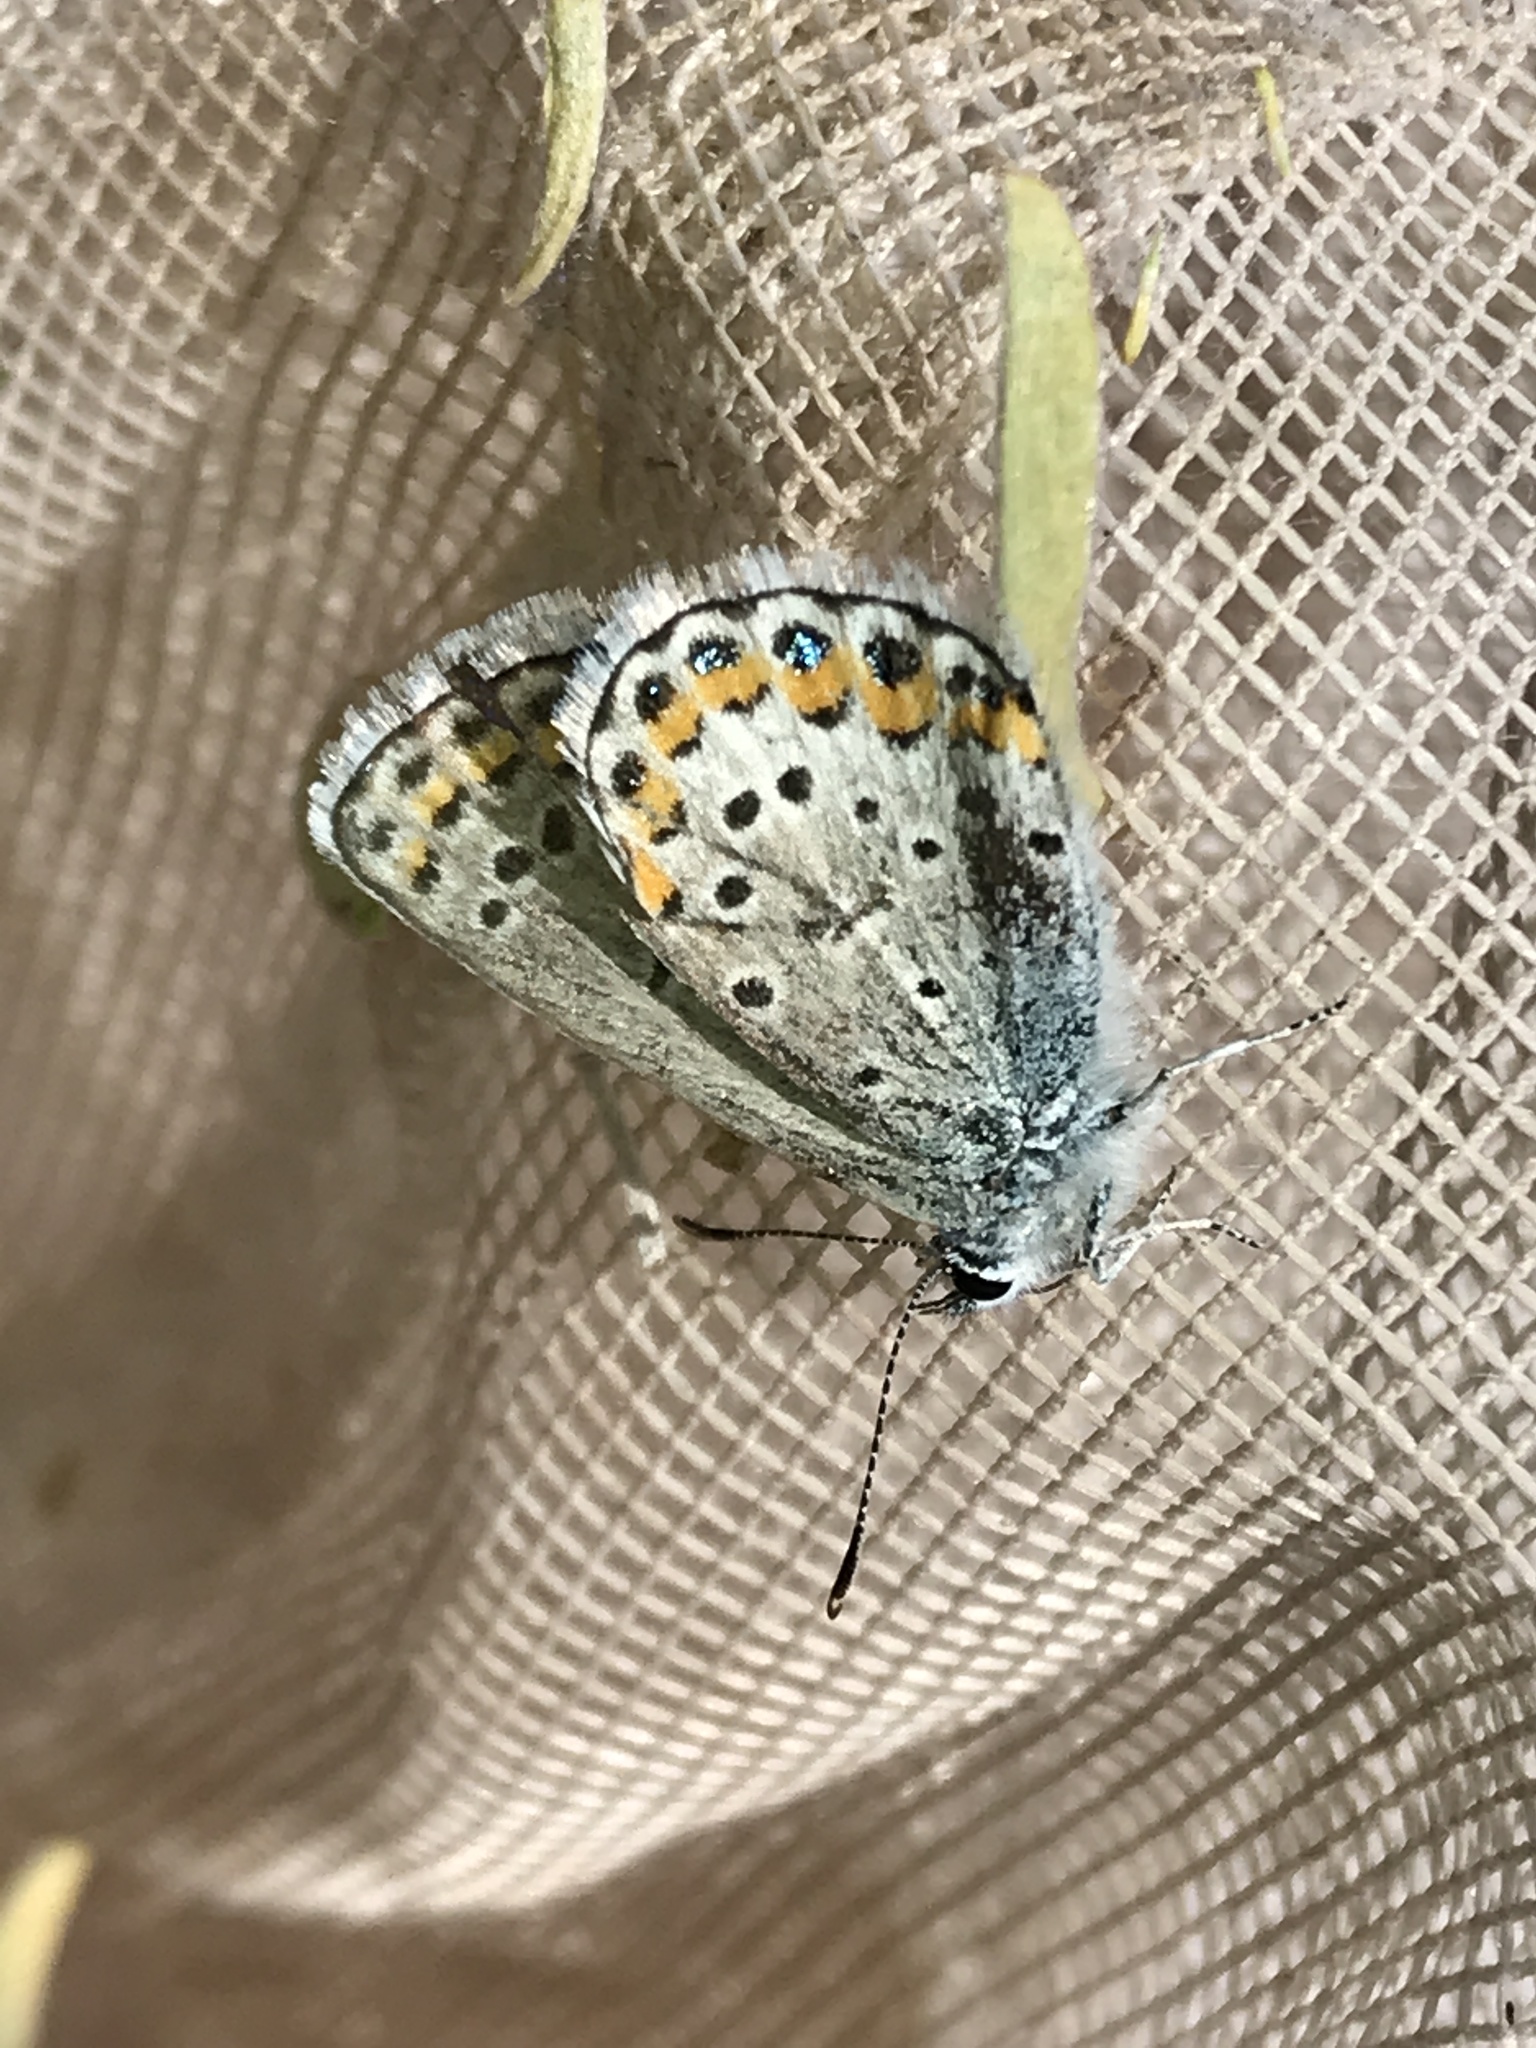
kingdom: Animalia
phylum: Arthropoda
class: Insecta
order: Lepidoptera
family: Lycaenidae
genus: Lycaeides
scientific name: Lycaeides melissa
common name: Melissa blue
